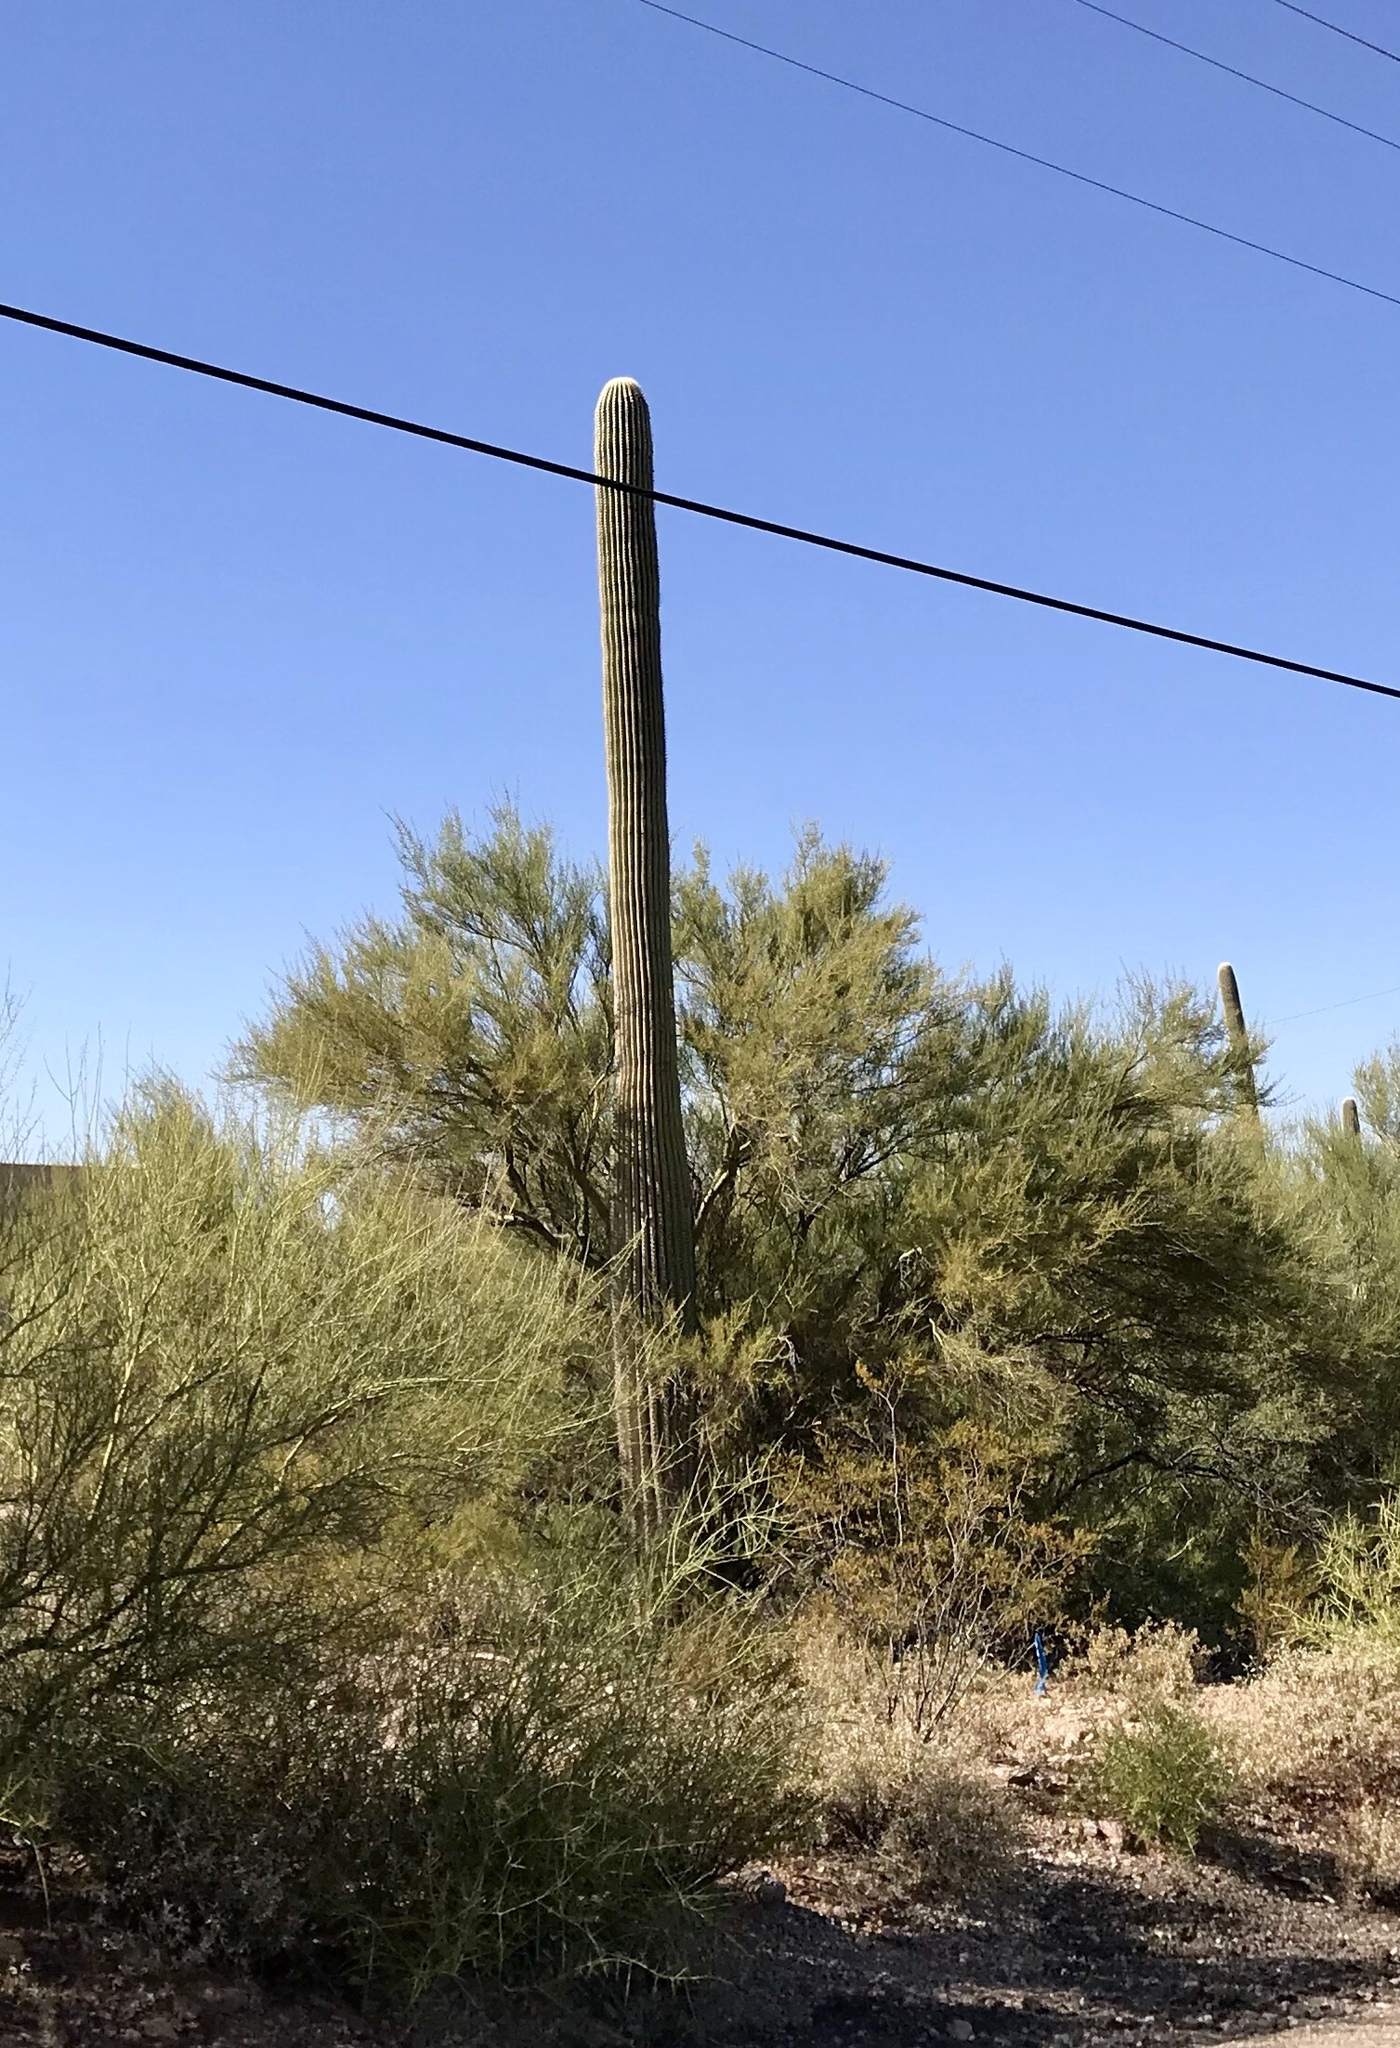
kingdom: Plantae
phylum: Tracheophyta
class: Magnoliopsida
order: Caryophyllales
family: Cactaceae
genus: Carnegiea
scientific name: Carnegiea gigantea
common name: Saguaro
